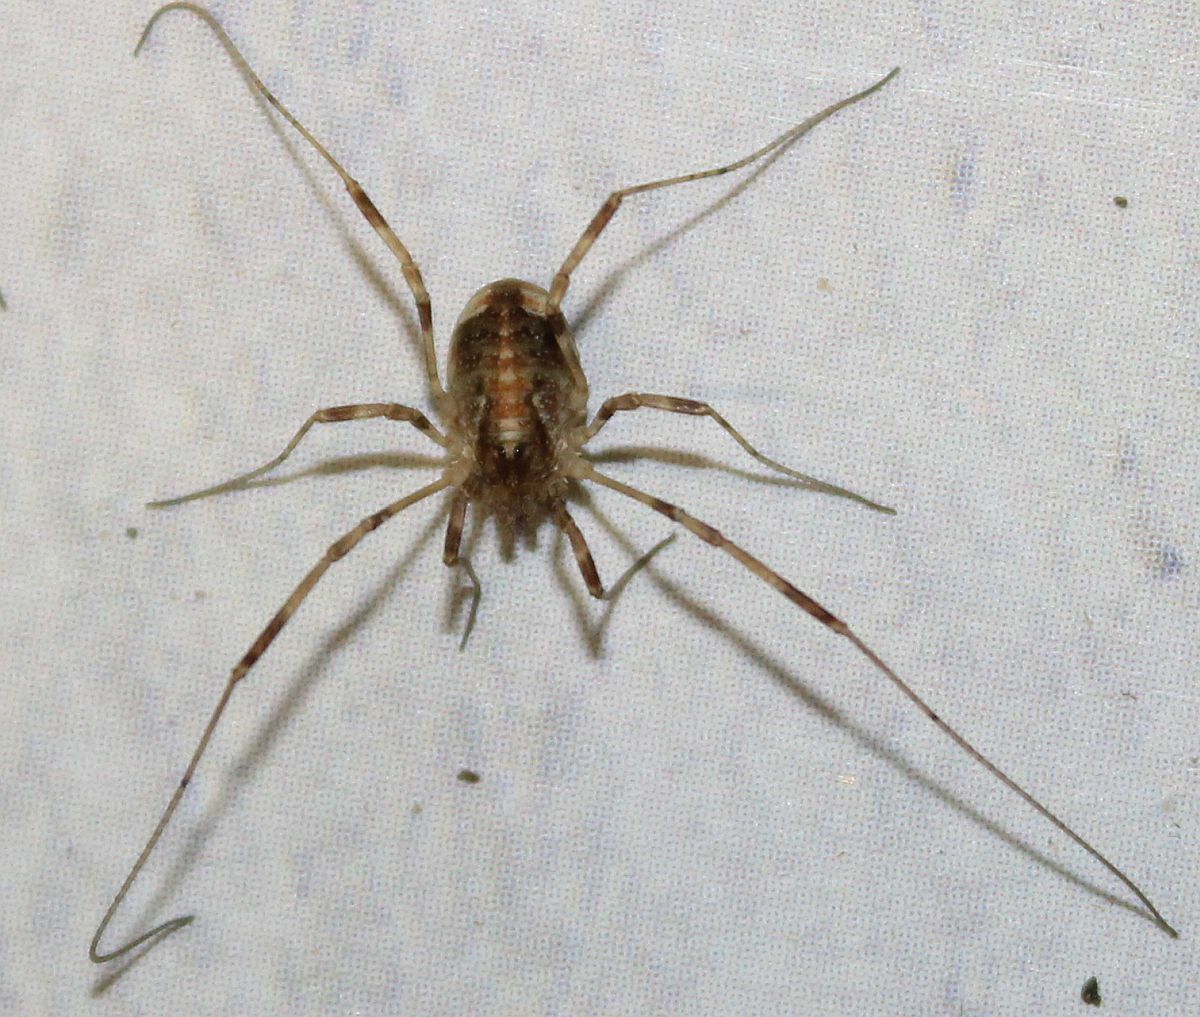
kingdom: Animalia
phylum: Arthropoda
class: Arachnida
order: Opiliones
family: Phalangiidae
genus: Paroligolophus
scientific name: Paroligolophus agrestis
